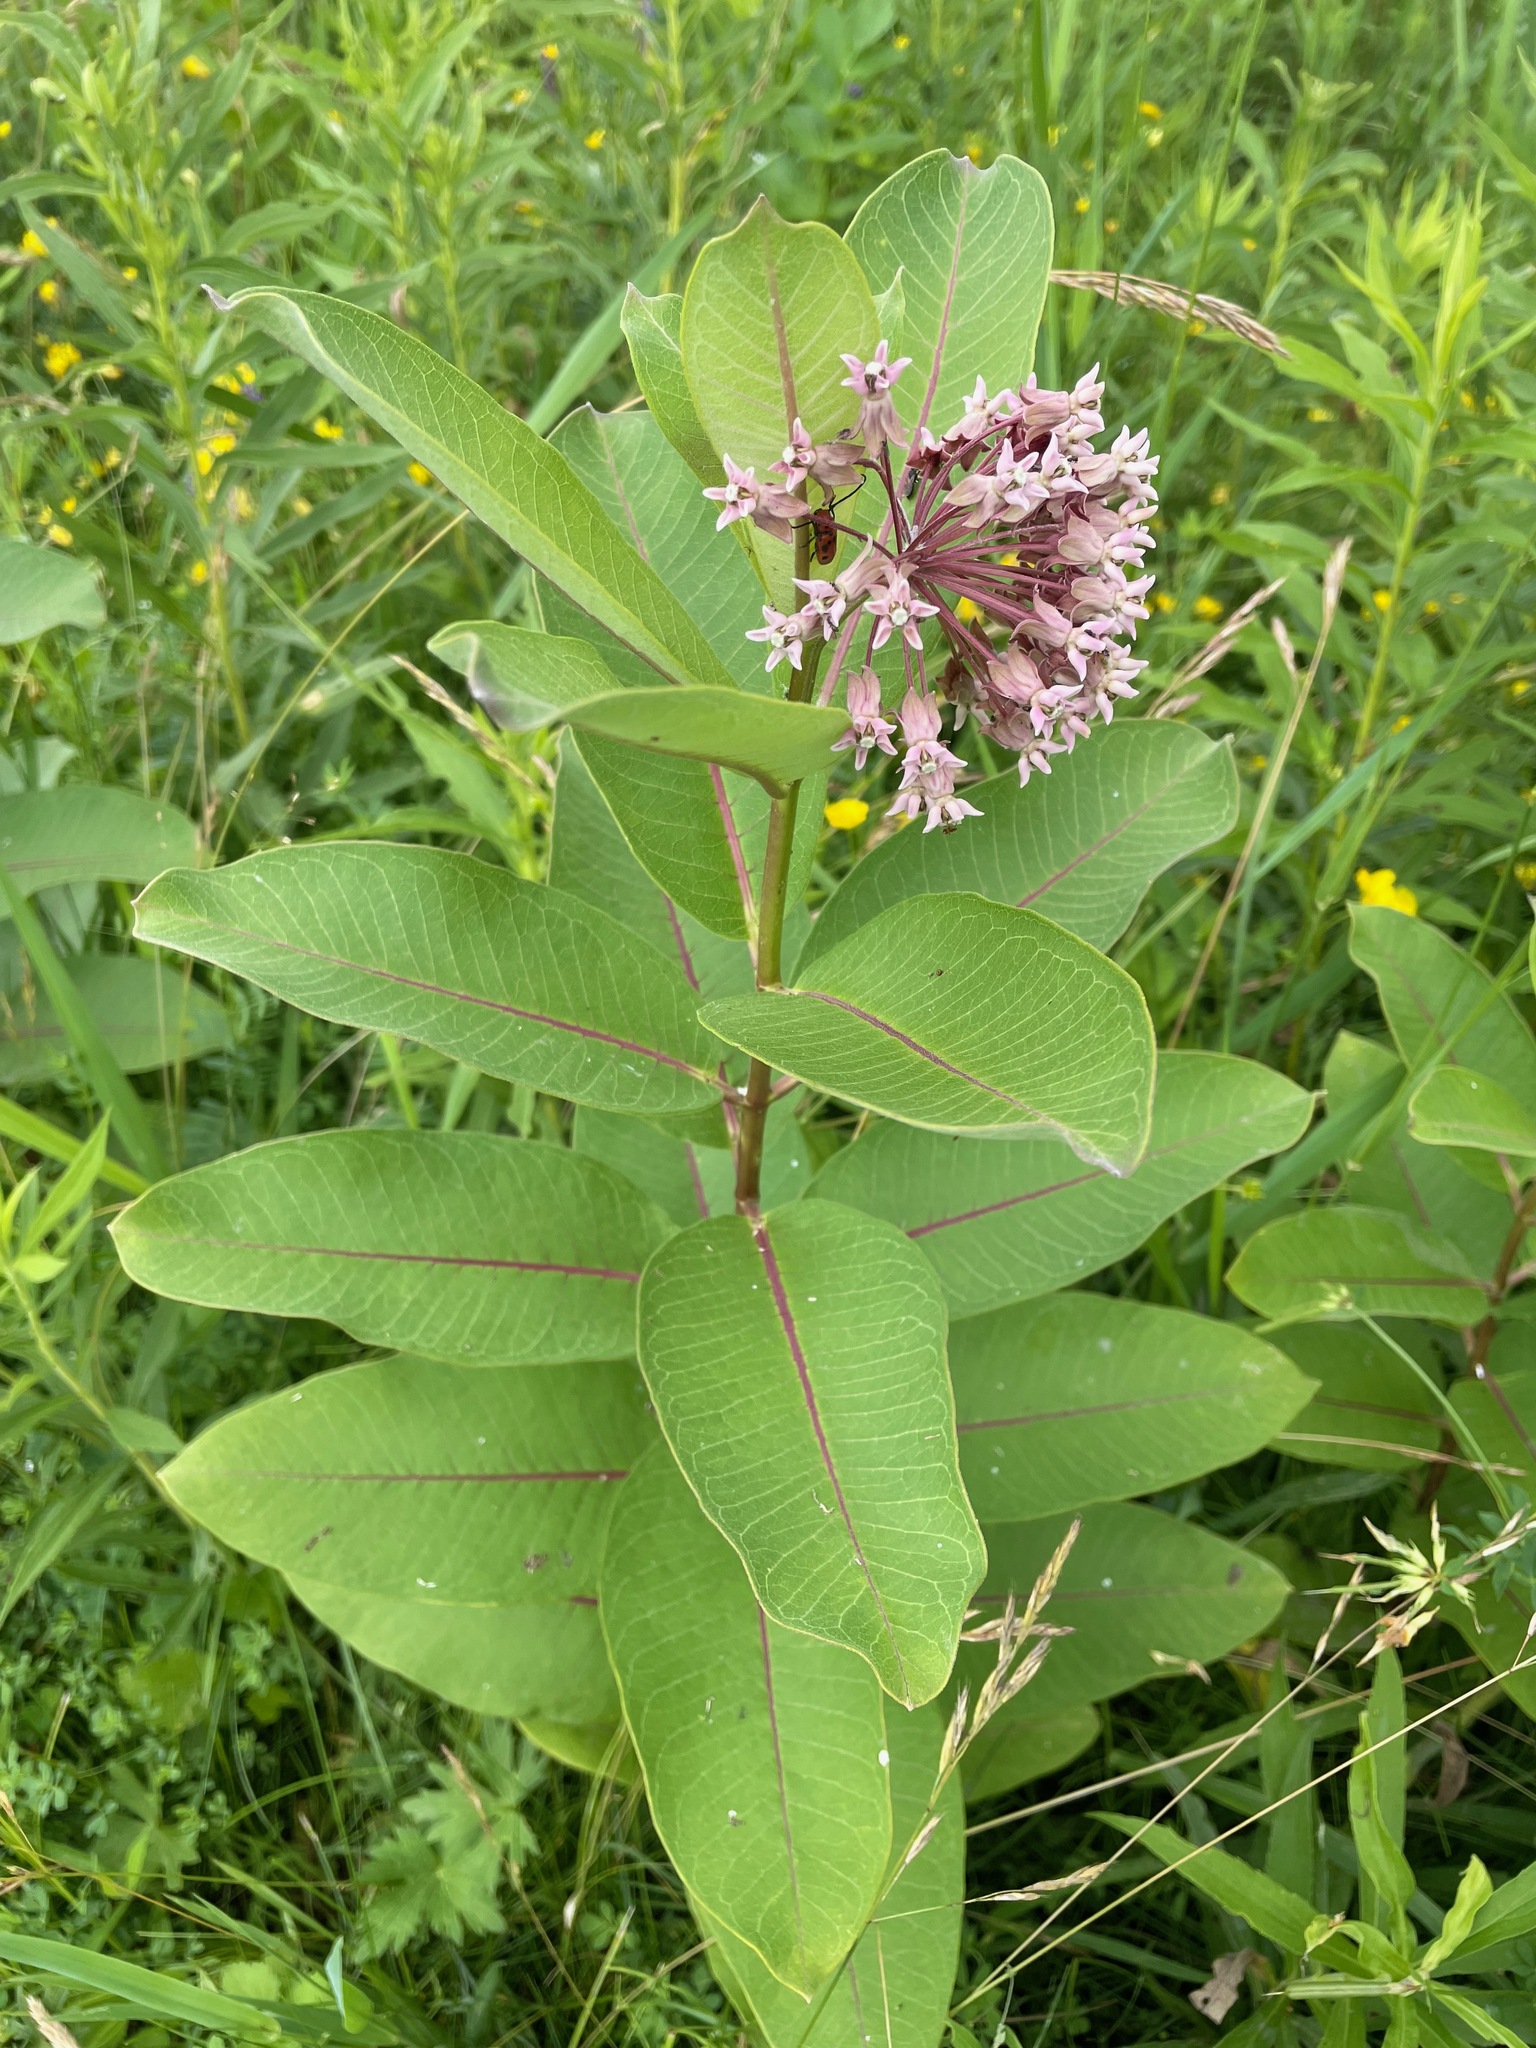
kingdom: Plantae
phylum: Tracheophyta
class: Magnoliopsida
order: Gentianales
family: Apocynaceae
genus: Asclepias
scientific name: Asclepias syriaca
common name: Common milkweed
